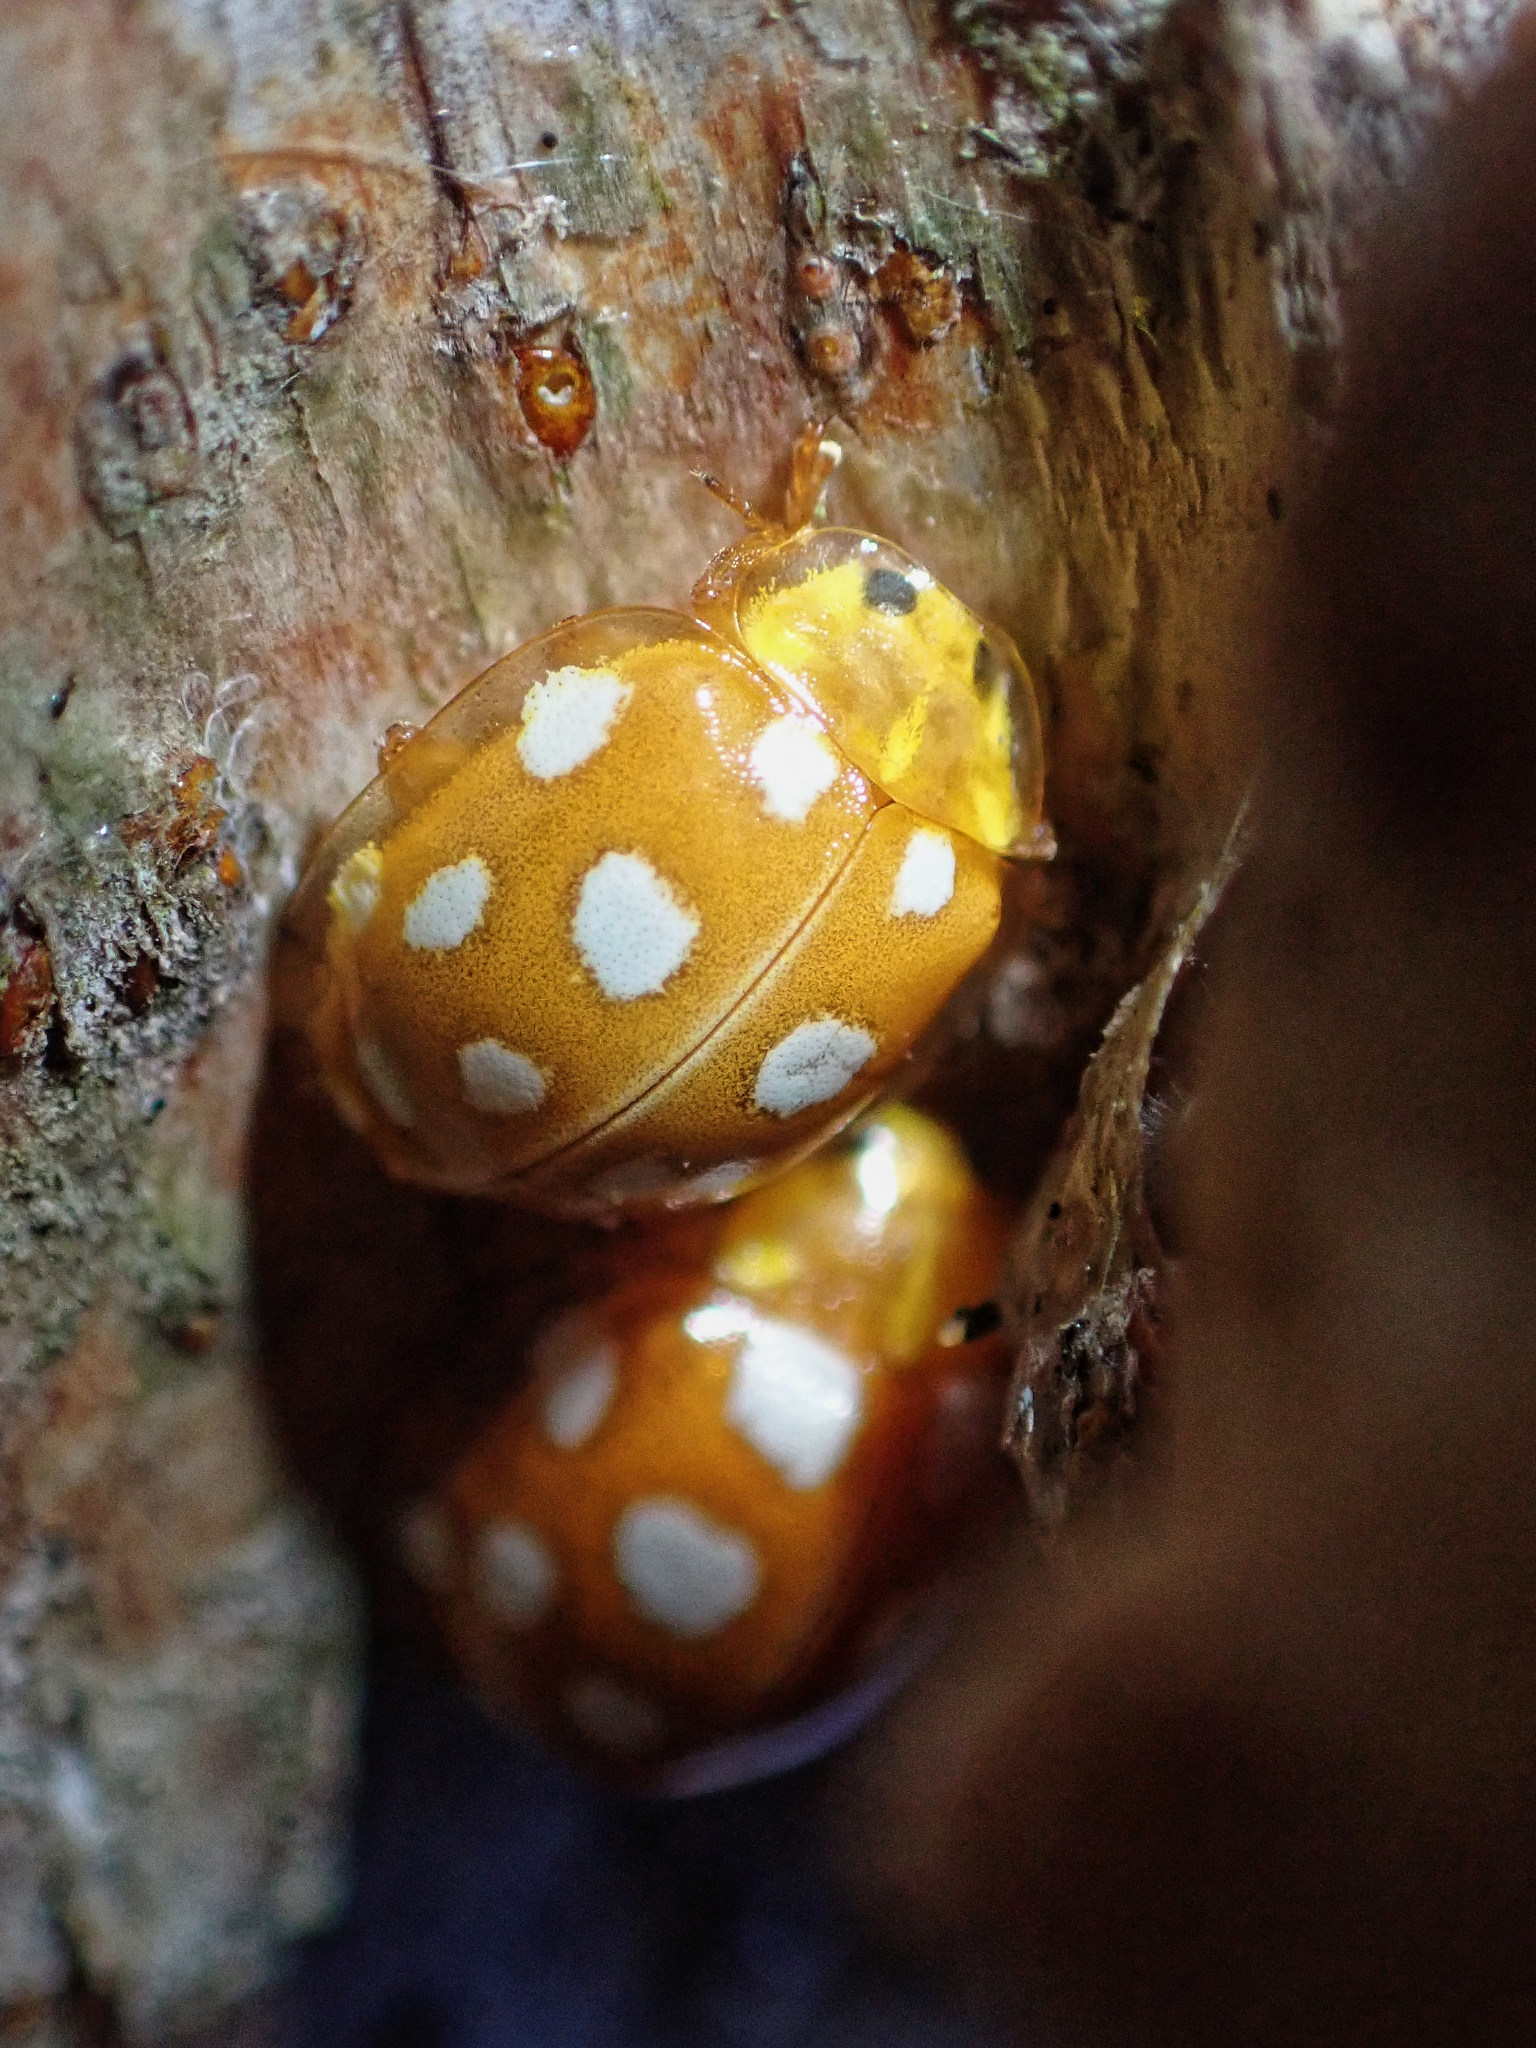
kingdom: Animalia
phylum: Arthropoda
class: Insecta
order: Coleoptera
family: Coccinellidae
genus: Halyzia
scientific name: Halyzia sedecimguttata
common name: Orange ladybird
